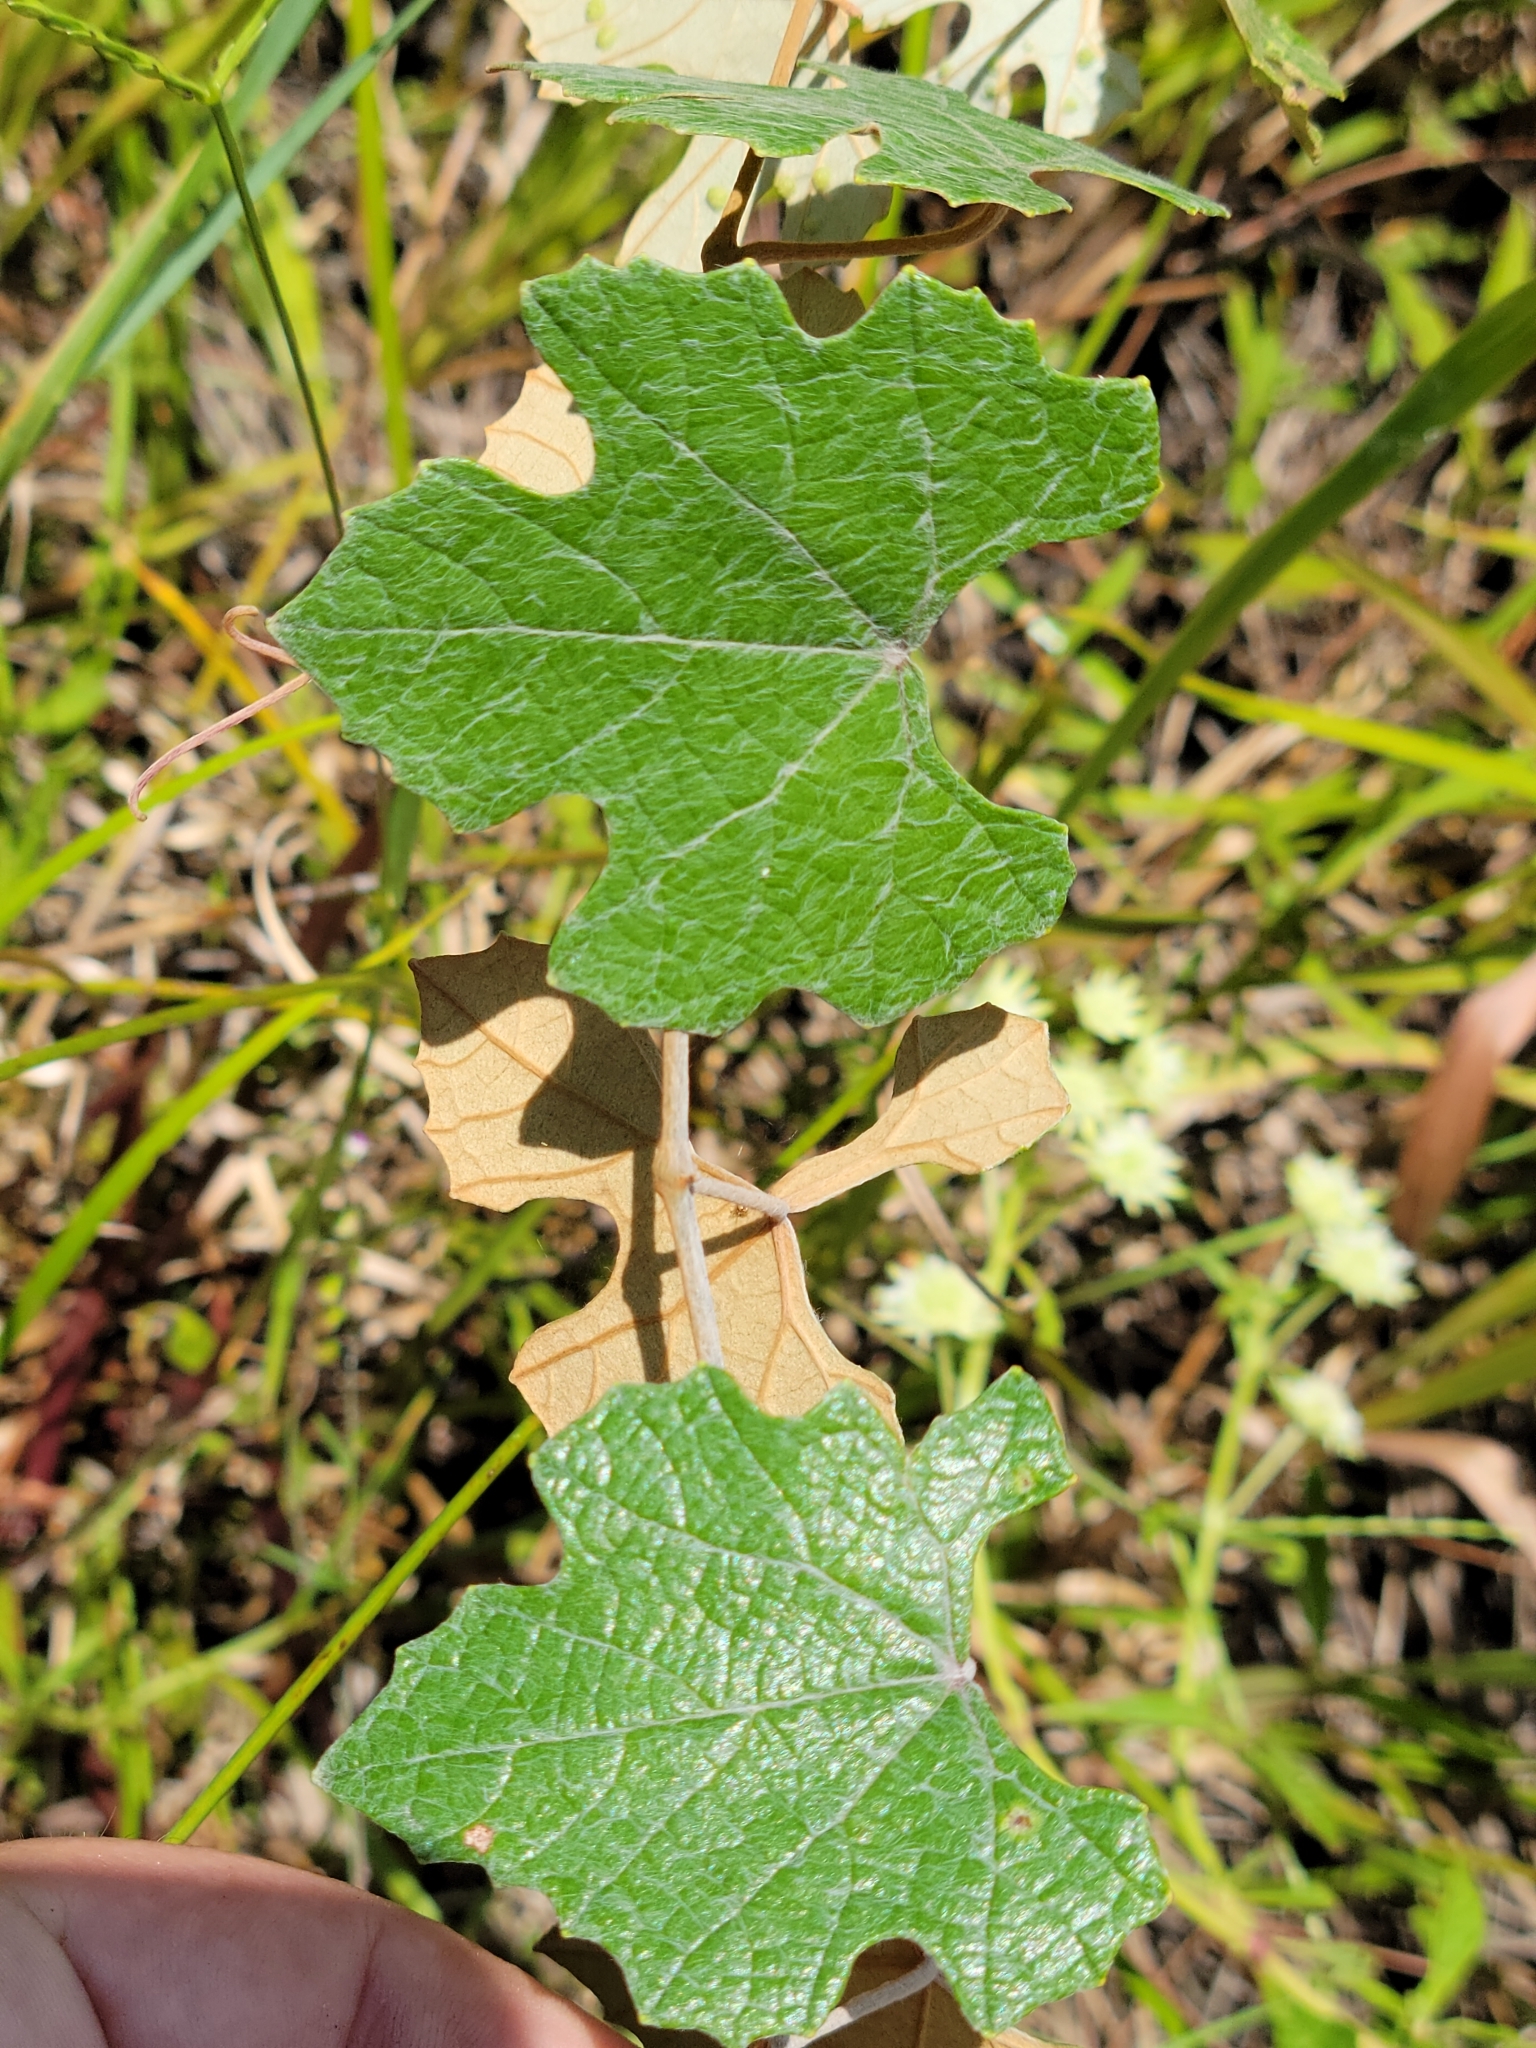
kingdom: Plantae
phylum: Tracheophyta
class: Magnoliopsida
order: Vitales
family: Vitaceae
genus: Vitis
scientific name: Vitis shuttleworthii
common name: Caloosa grape
